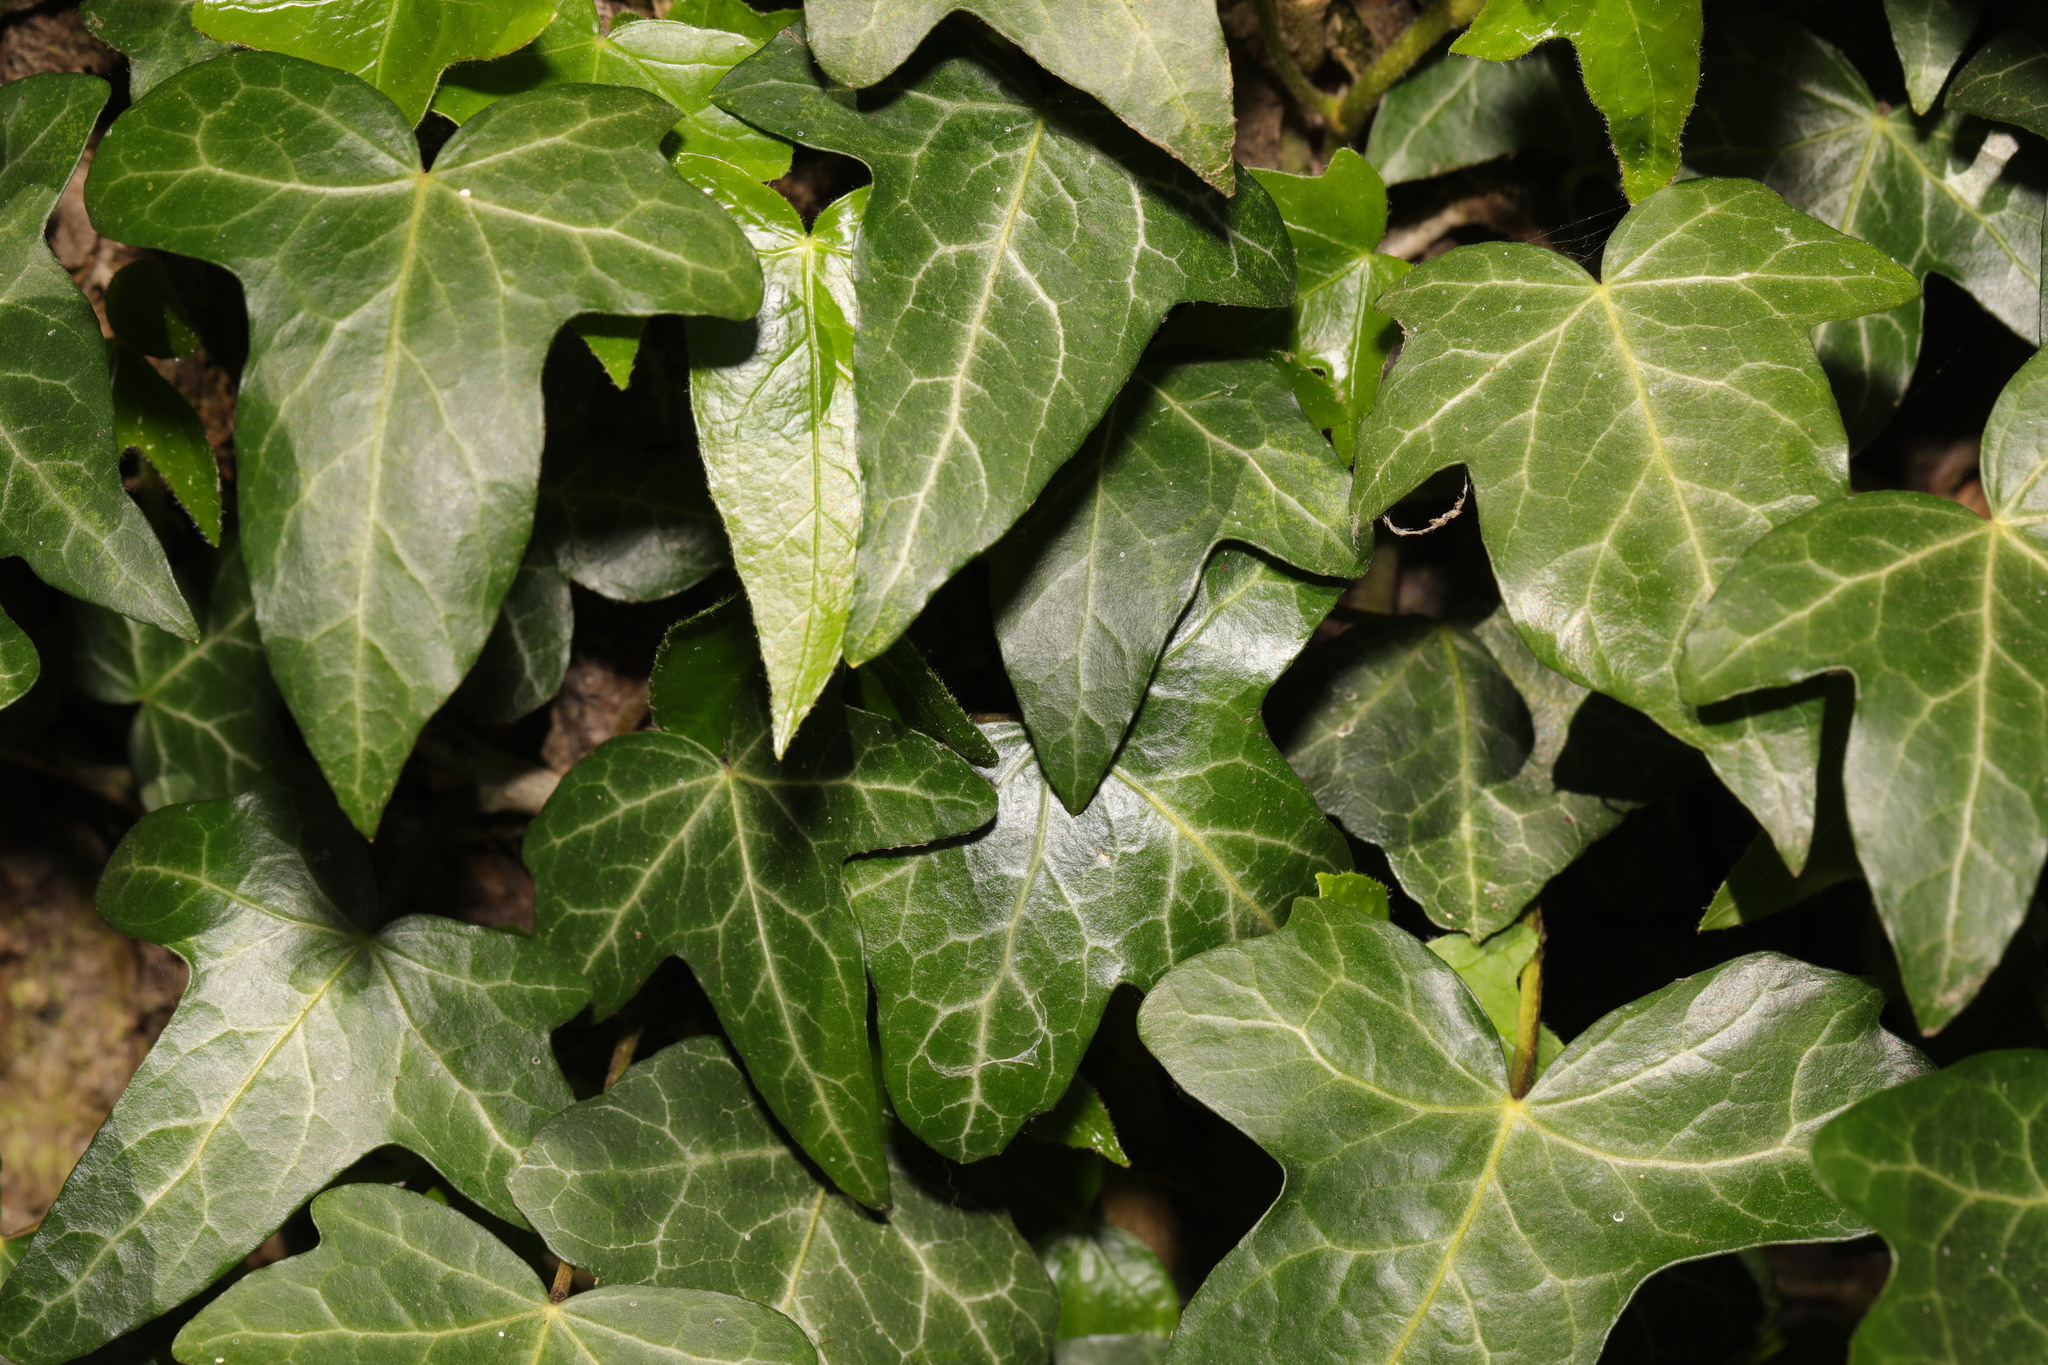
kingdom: Plantae
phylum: Tracheophyta
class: Magnoliopsida
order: Apiales
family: Araliaceae
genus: Hedera
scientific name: Hedera helix
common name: Ivy
